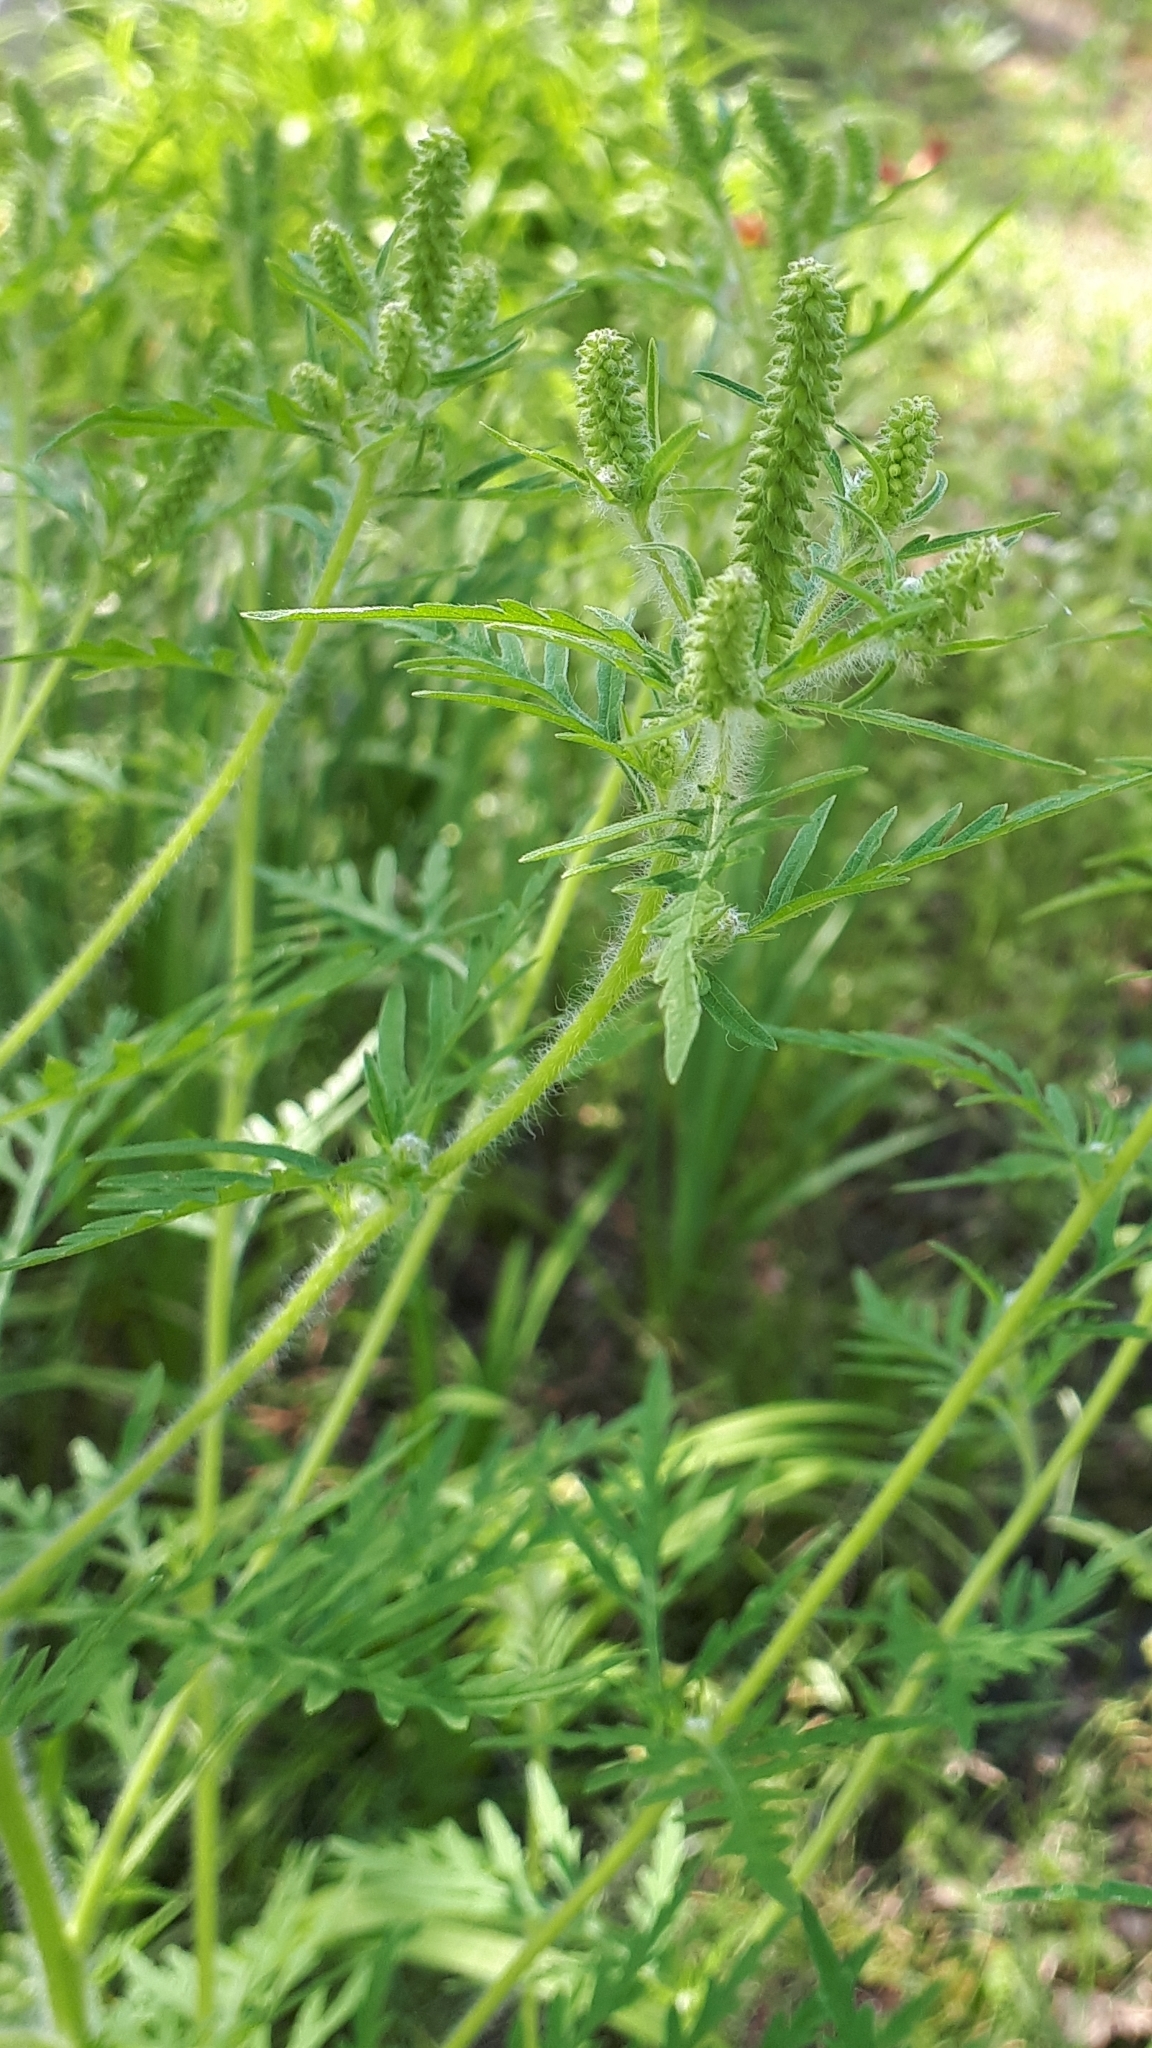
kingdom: Plantae
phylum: Tracheophyta
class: Magnoliopsida
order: Asterales
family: Asteraceae
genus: Ambrosia
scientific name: Ambrosia artemisiifolia
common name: Annual ragweed
